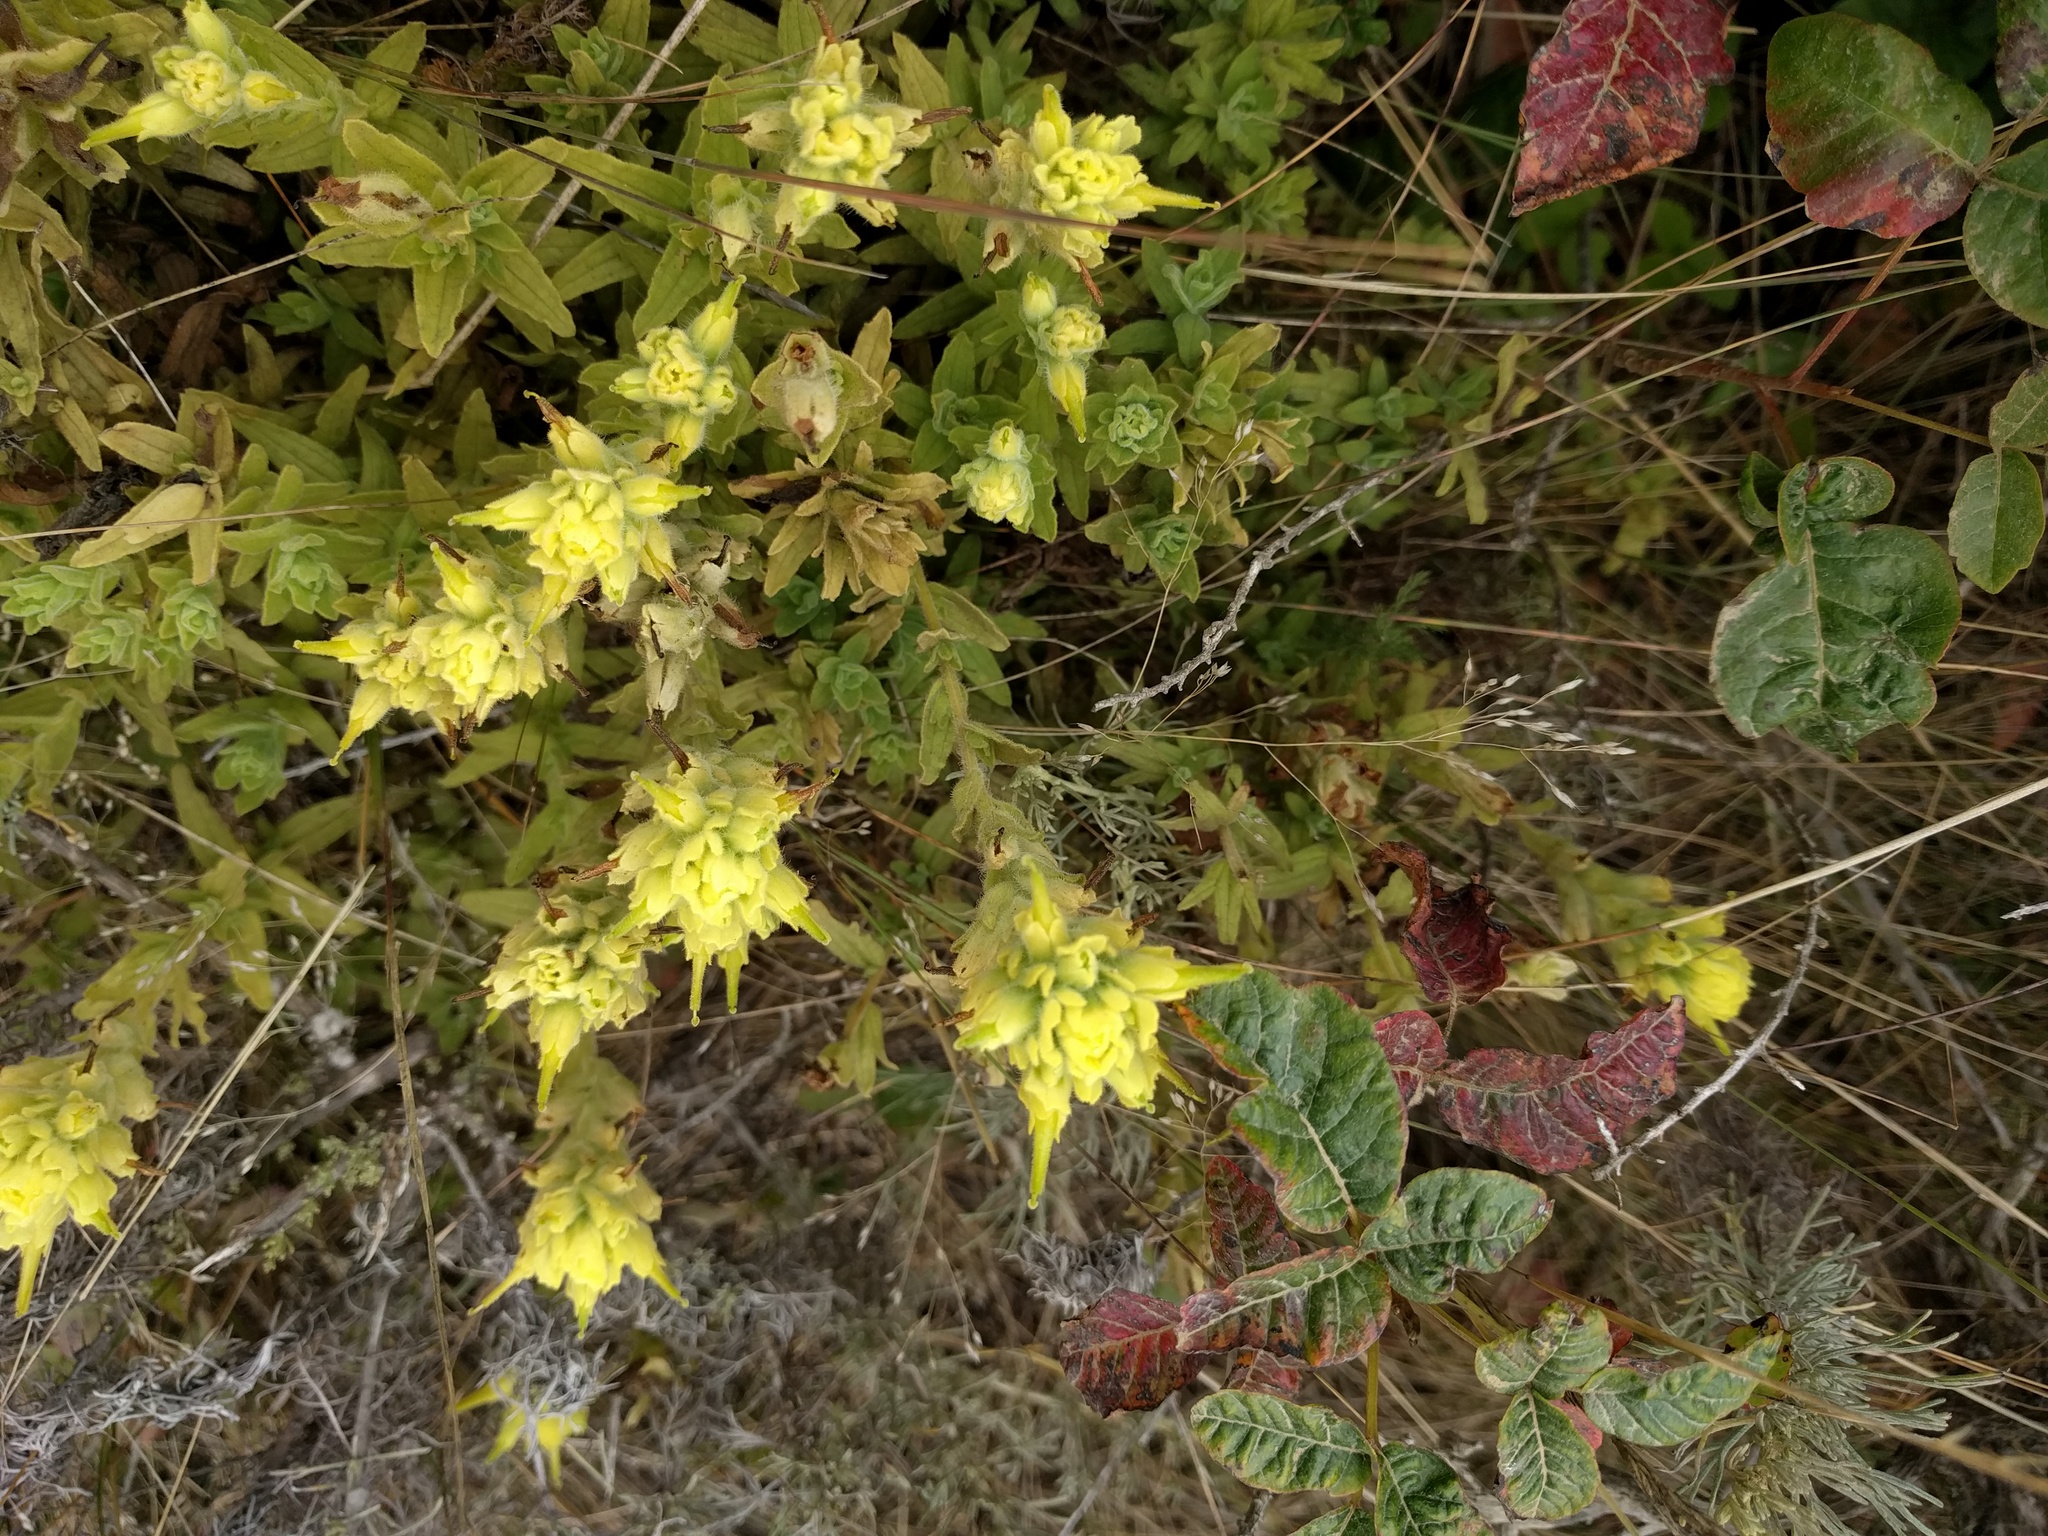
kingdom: Plantae
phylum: Tracheophyta
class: Magnoliopsida
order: Lamiales
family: Orobanchaceae
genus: Castilleja
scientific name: Castilleja wightii
